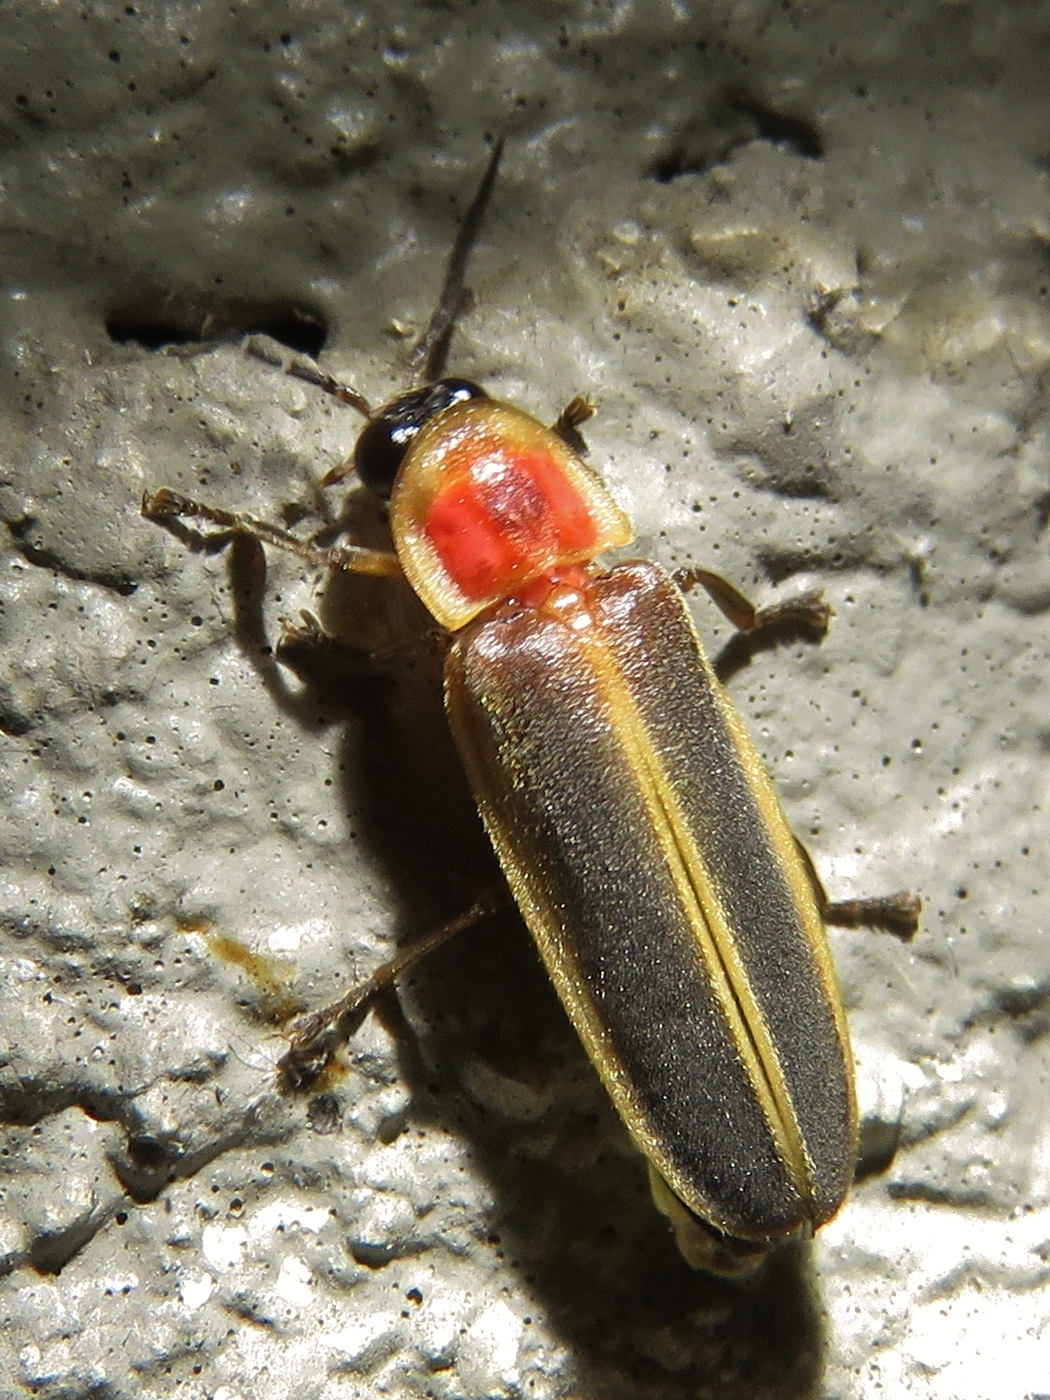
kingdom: Animalia
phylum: Arthropoda
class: Insecta
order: Coleoptera
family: Lampyridae
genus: Photinus
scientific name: Photinus pyralis
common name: Big dipper firefly
